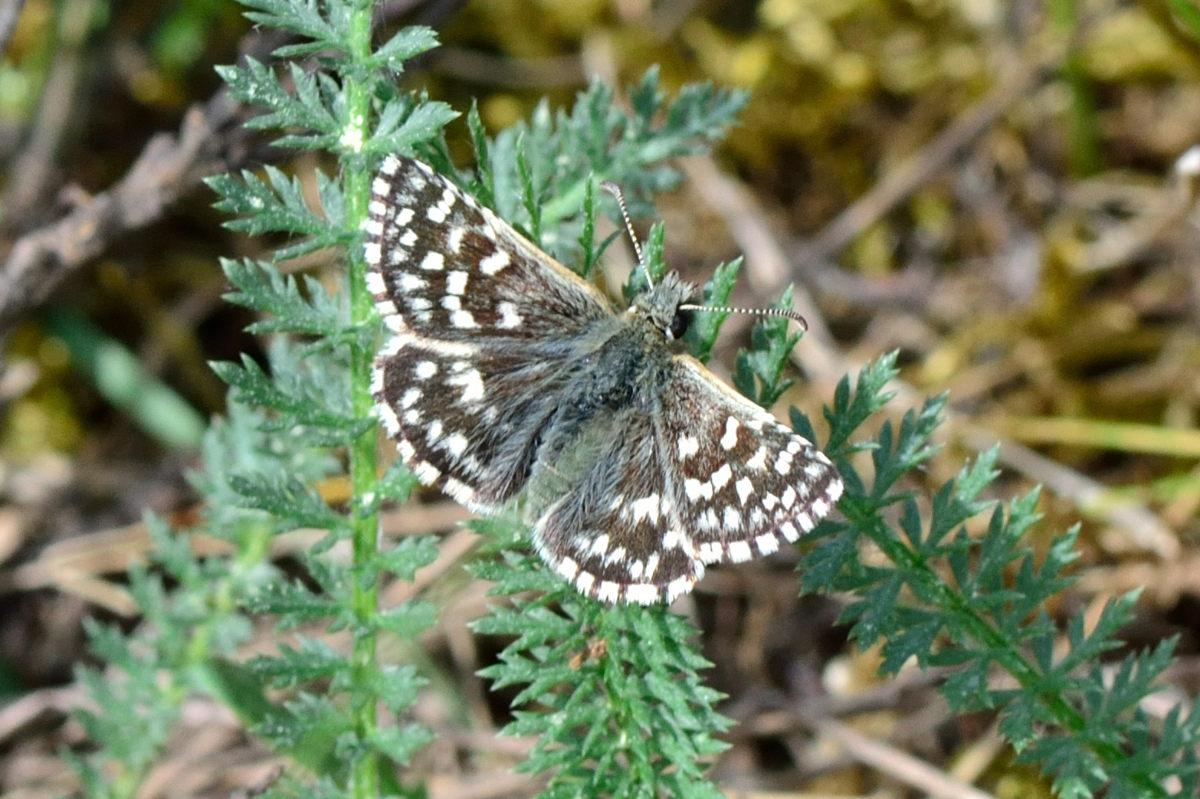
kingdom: Animalia
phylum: Arthropoda
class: Insecta
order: Lepidoptera
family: Hesperiidae
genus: Pyrgus
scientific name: Pyrgus malvae
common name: Grizzled skipper
